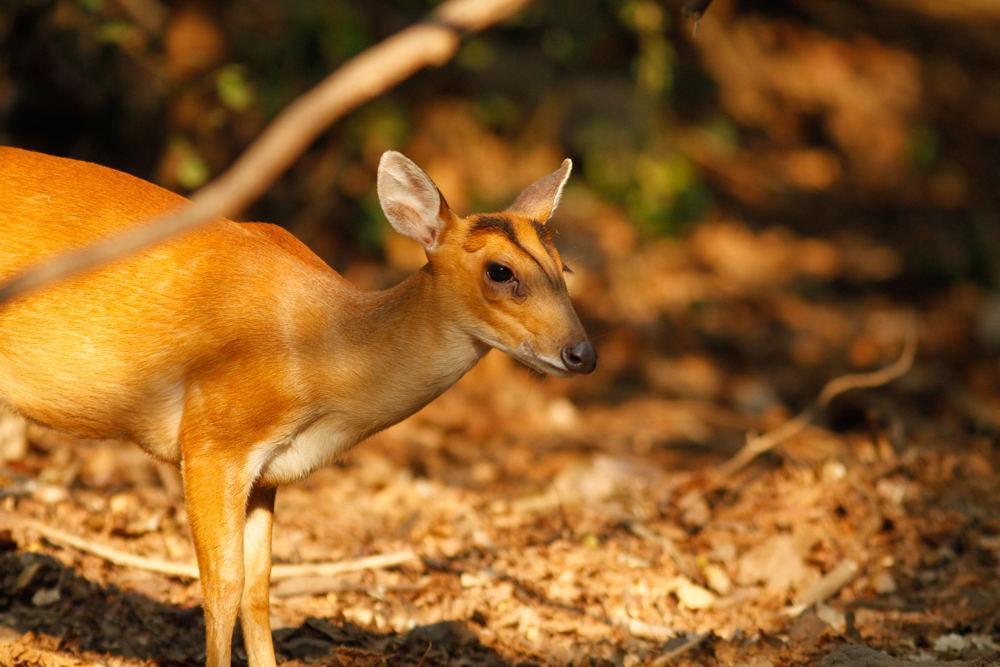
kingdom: Animalia
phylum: Chordata
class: Mammalia
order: Artiodactyla
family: Cervidae
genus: Muntiacus
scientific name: Muntiacus muntjak
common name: Indian muntjac
